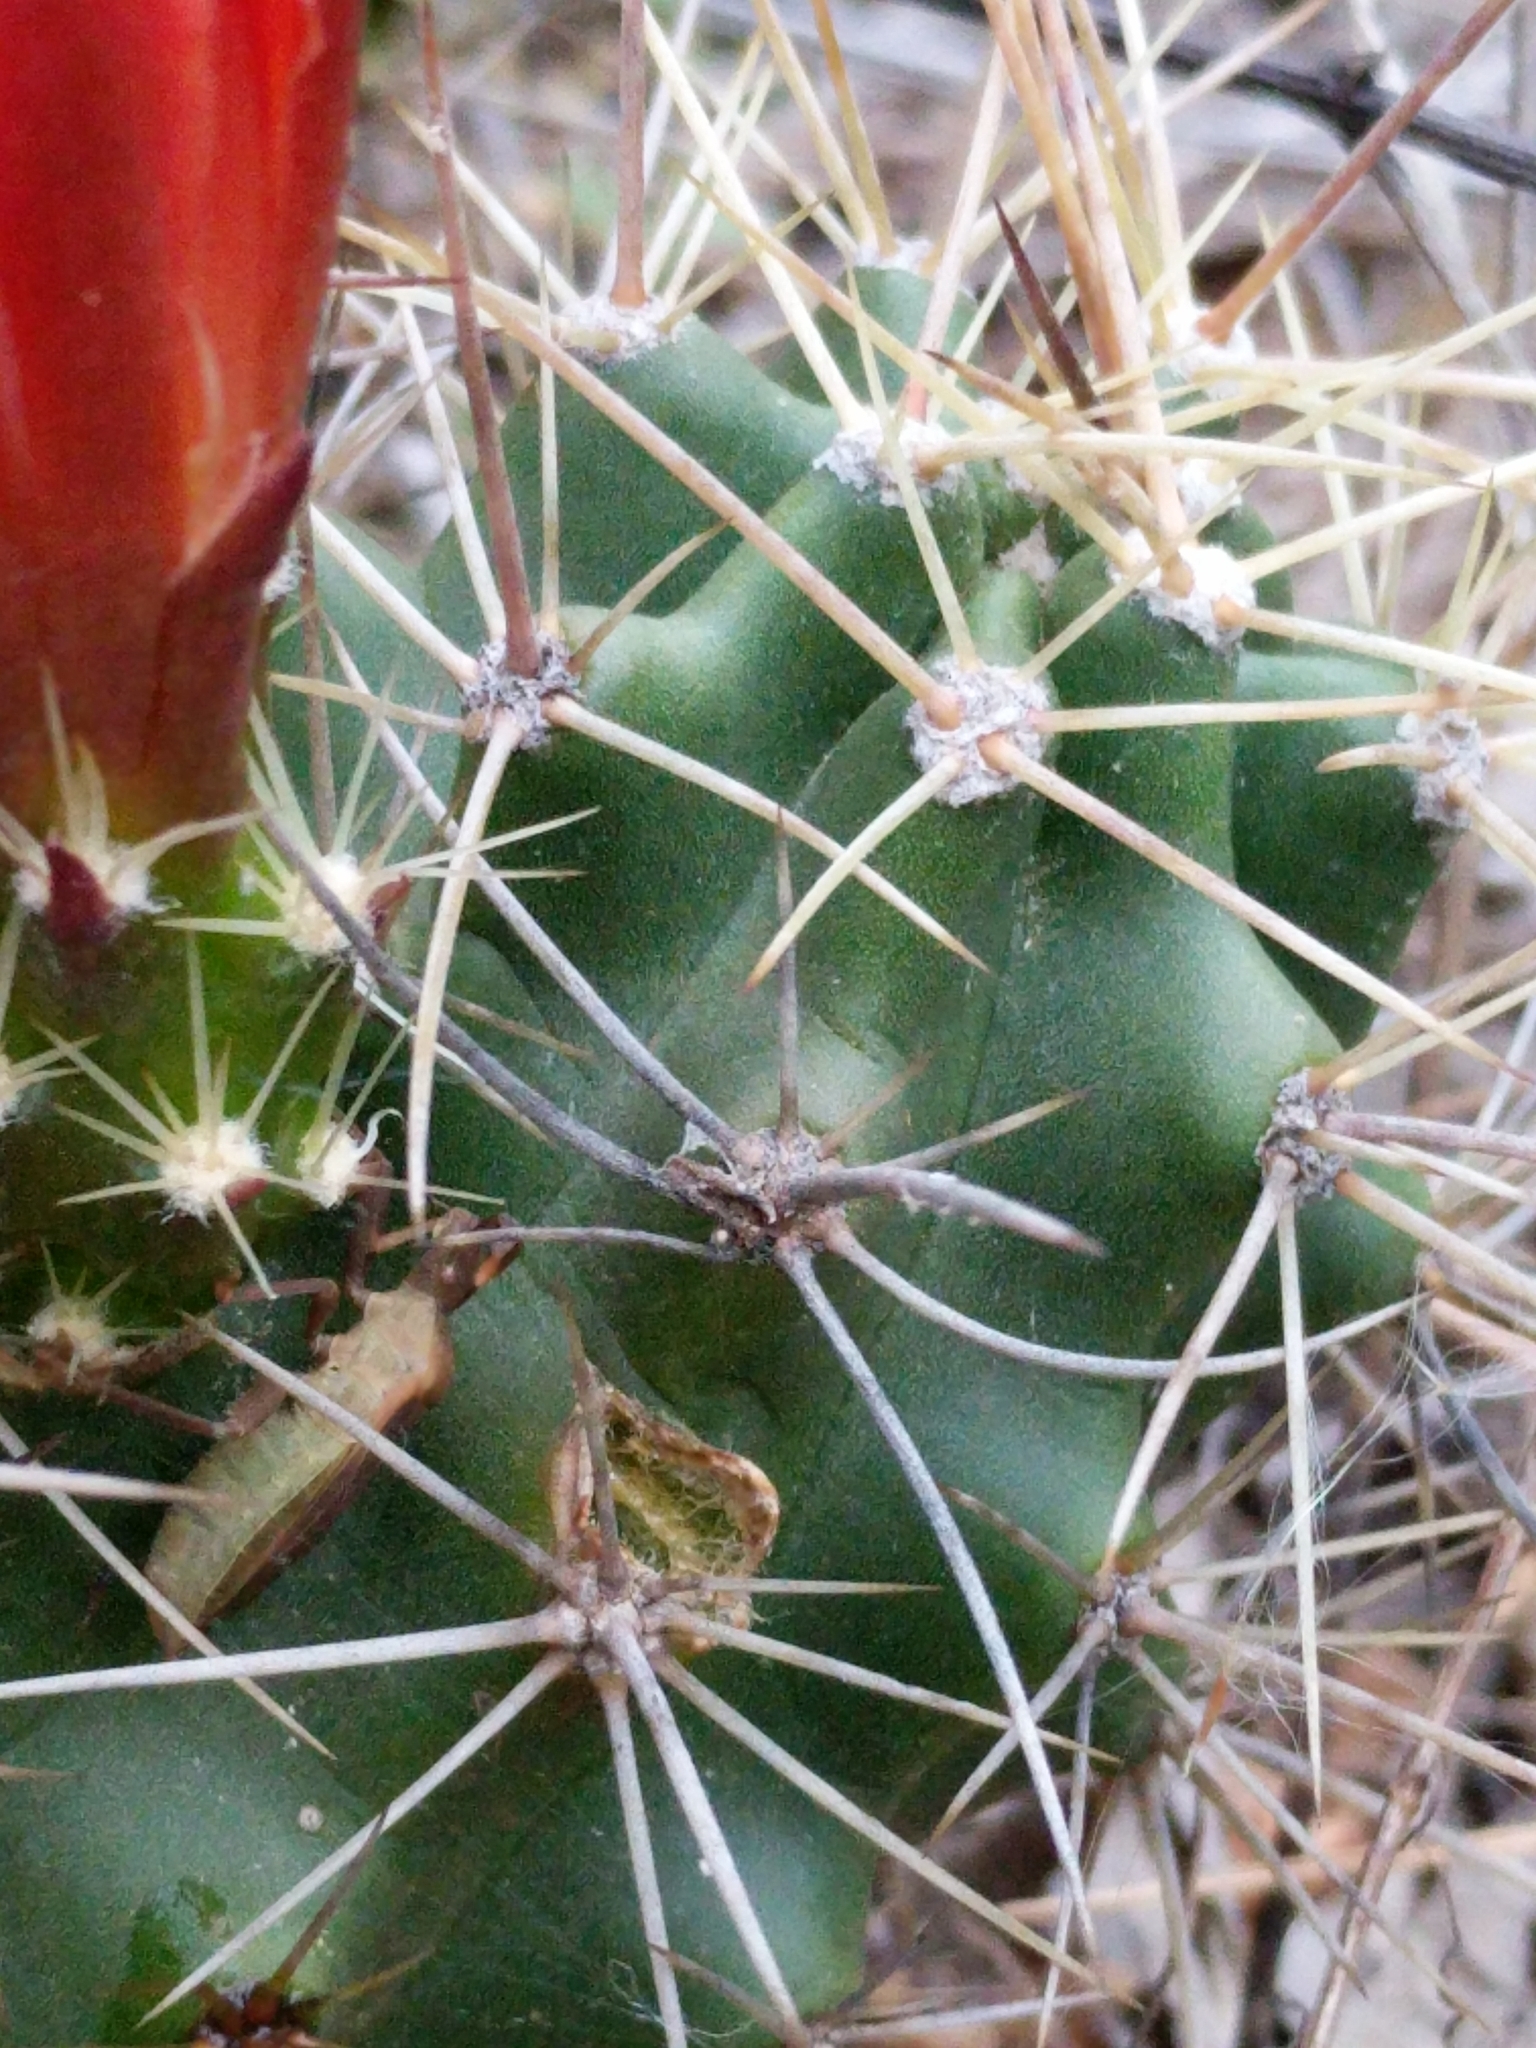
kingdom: Plantae
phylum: Tracheophyta
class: Magnoliopsida
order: Caryophyllales
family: Cactaceae
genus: Echinocereus
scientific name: Echinocereus coccineus
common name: Scarlet hedgehog cactus
